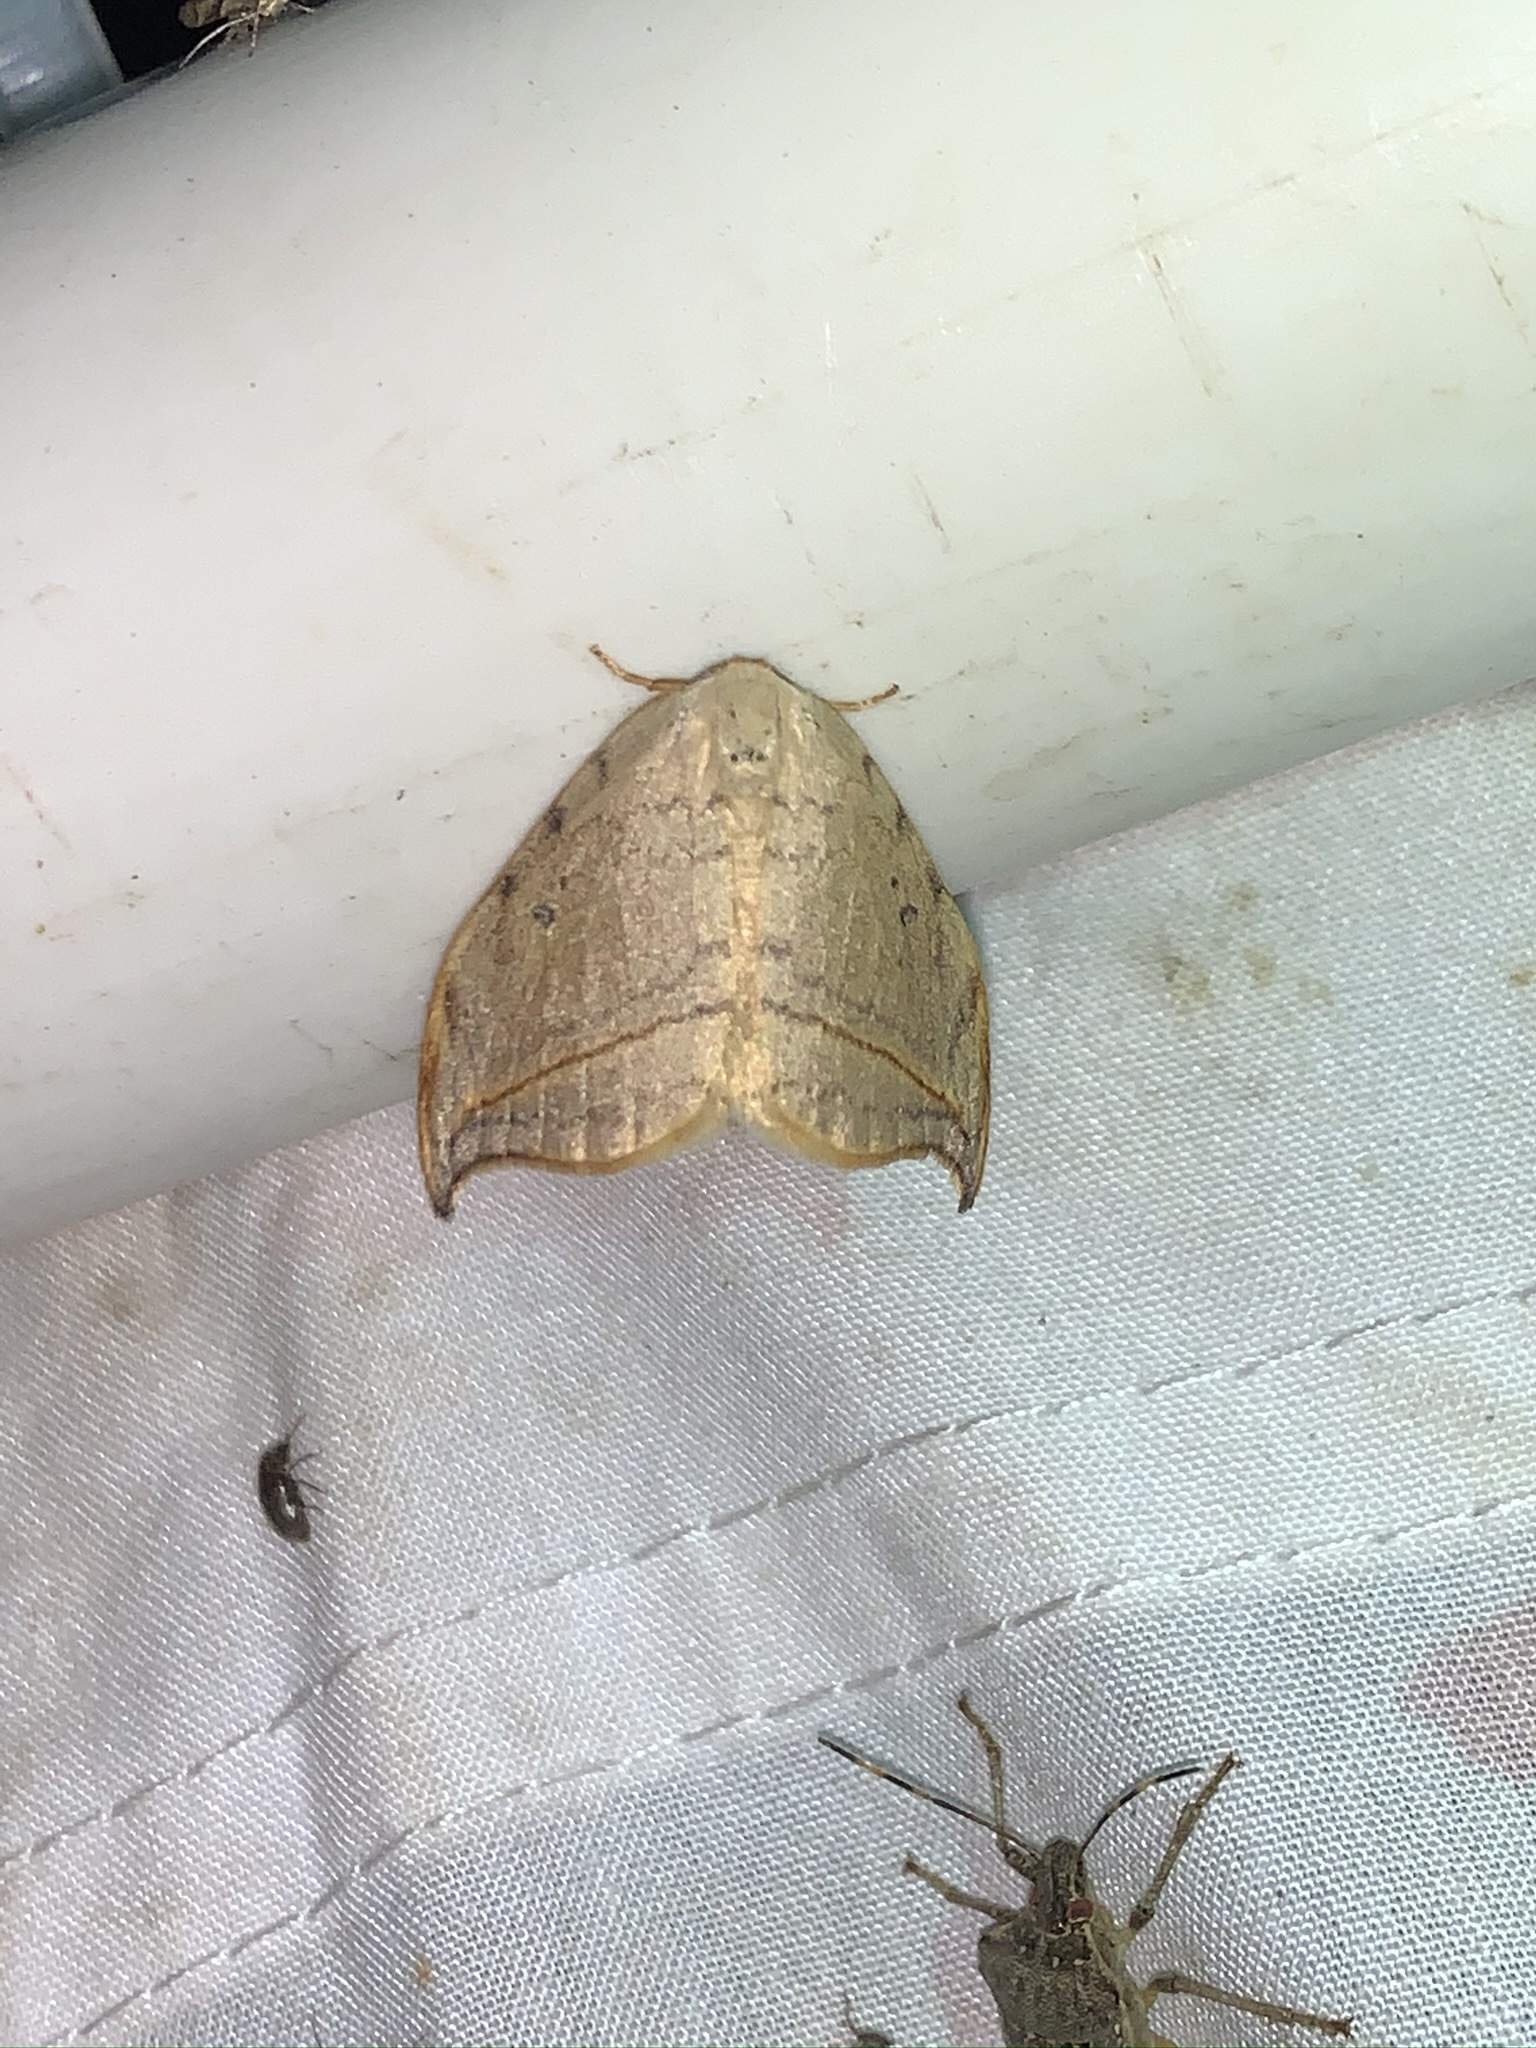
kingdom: Animalia
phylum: Arthropoda
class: Insecta
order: Lepidoptera
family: Drepanidae
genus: Drepana
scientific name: Drepana arcuata
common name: Arched hooktip moth
